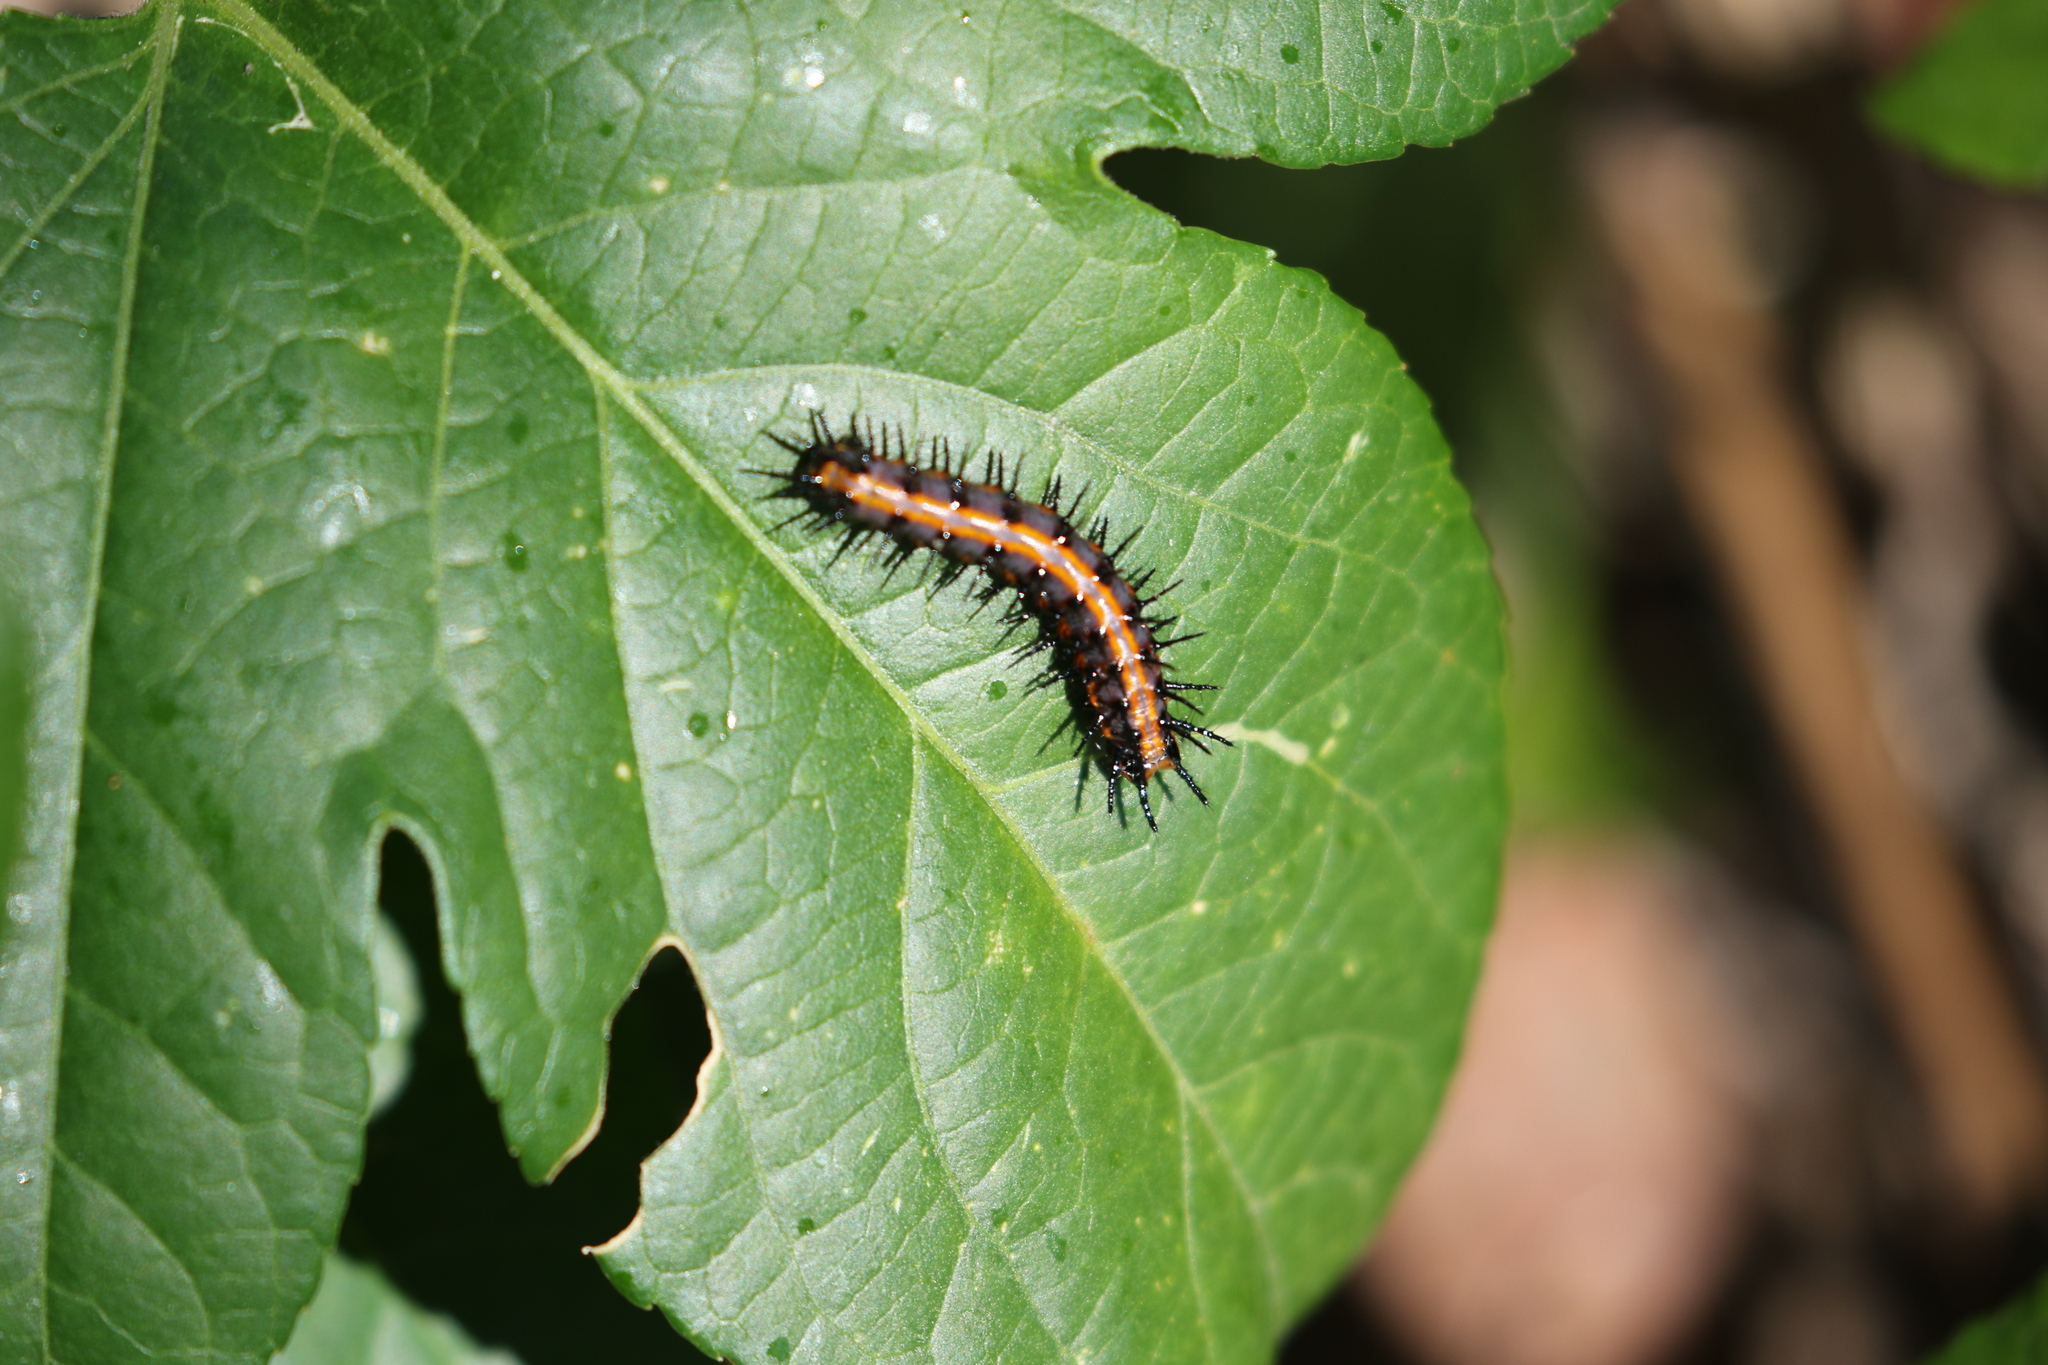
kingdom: Animalia
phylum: Arthropoda
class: Insecta
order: Lepidoptera
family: Nymphalidae
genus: Dione
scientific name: Dione vanillae
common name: Gulf fritillary
